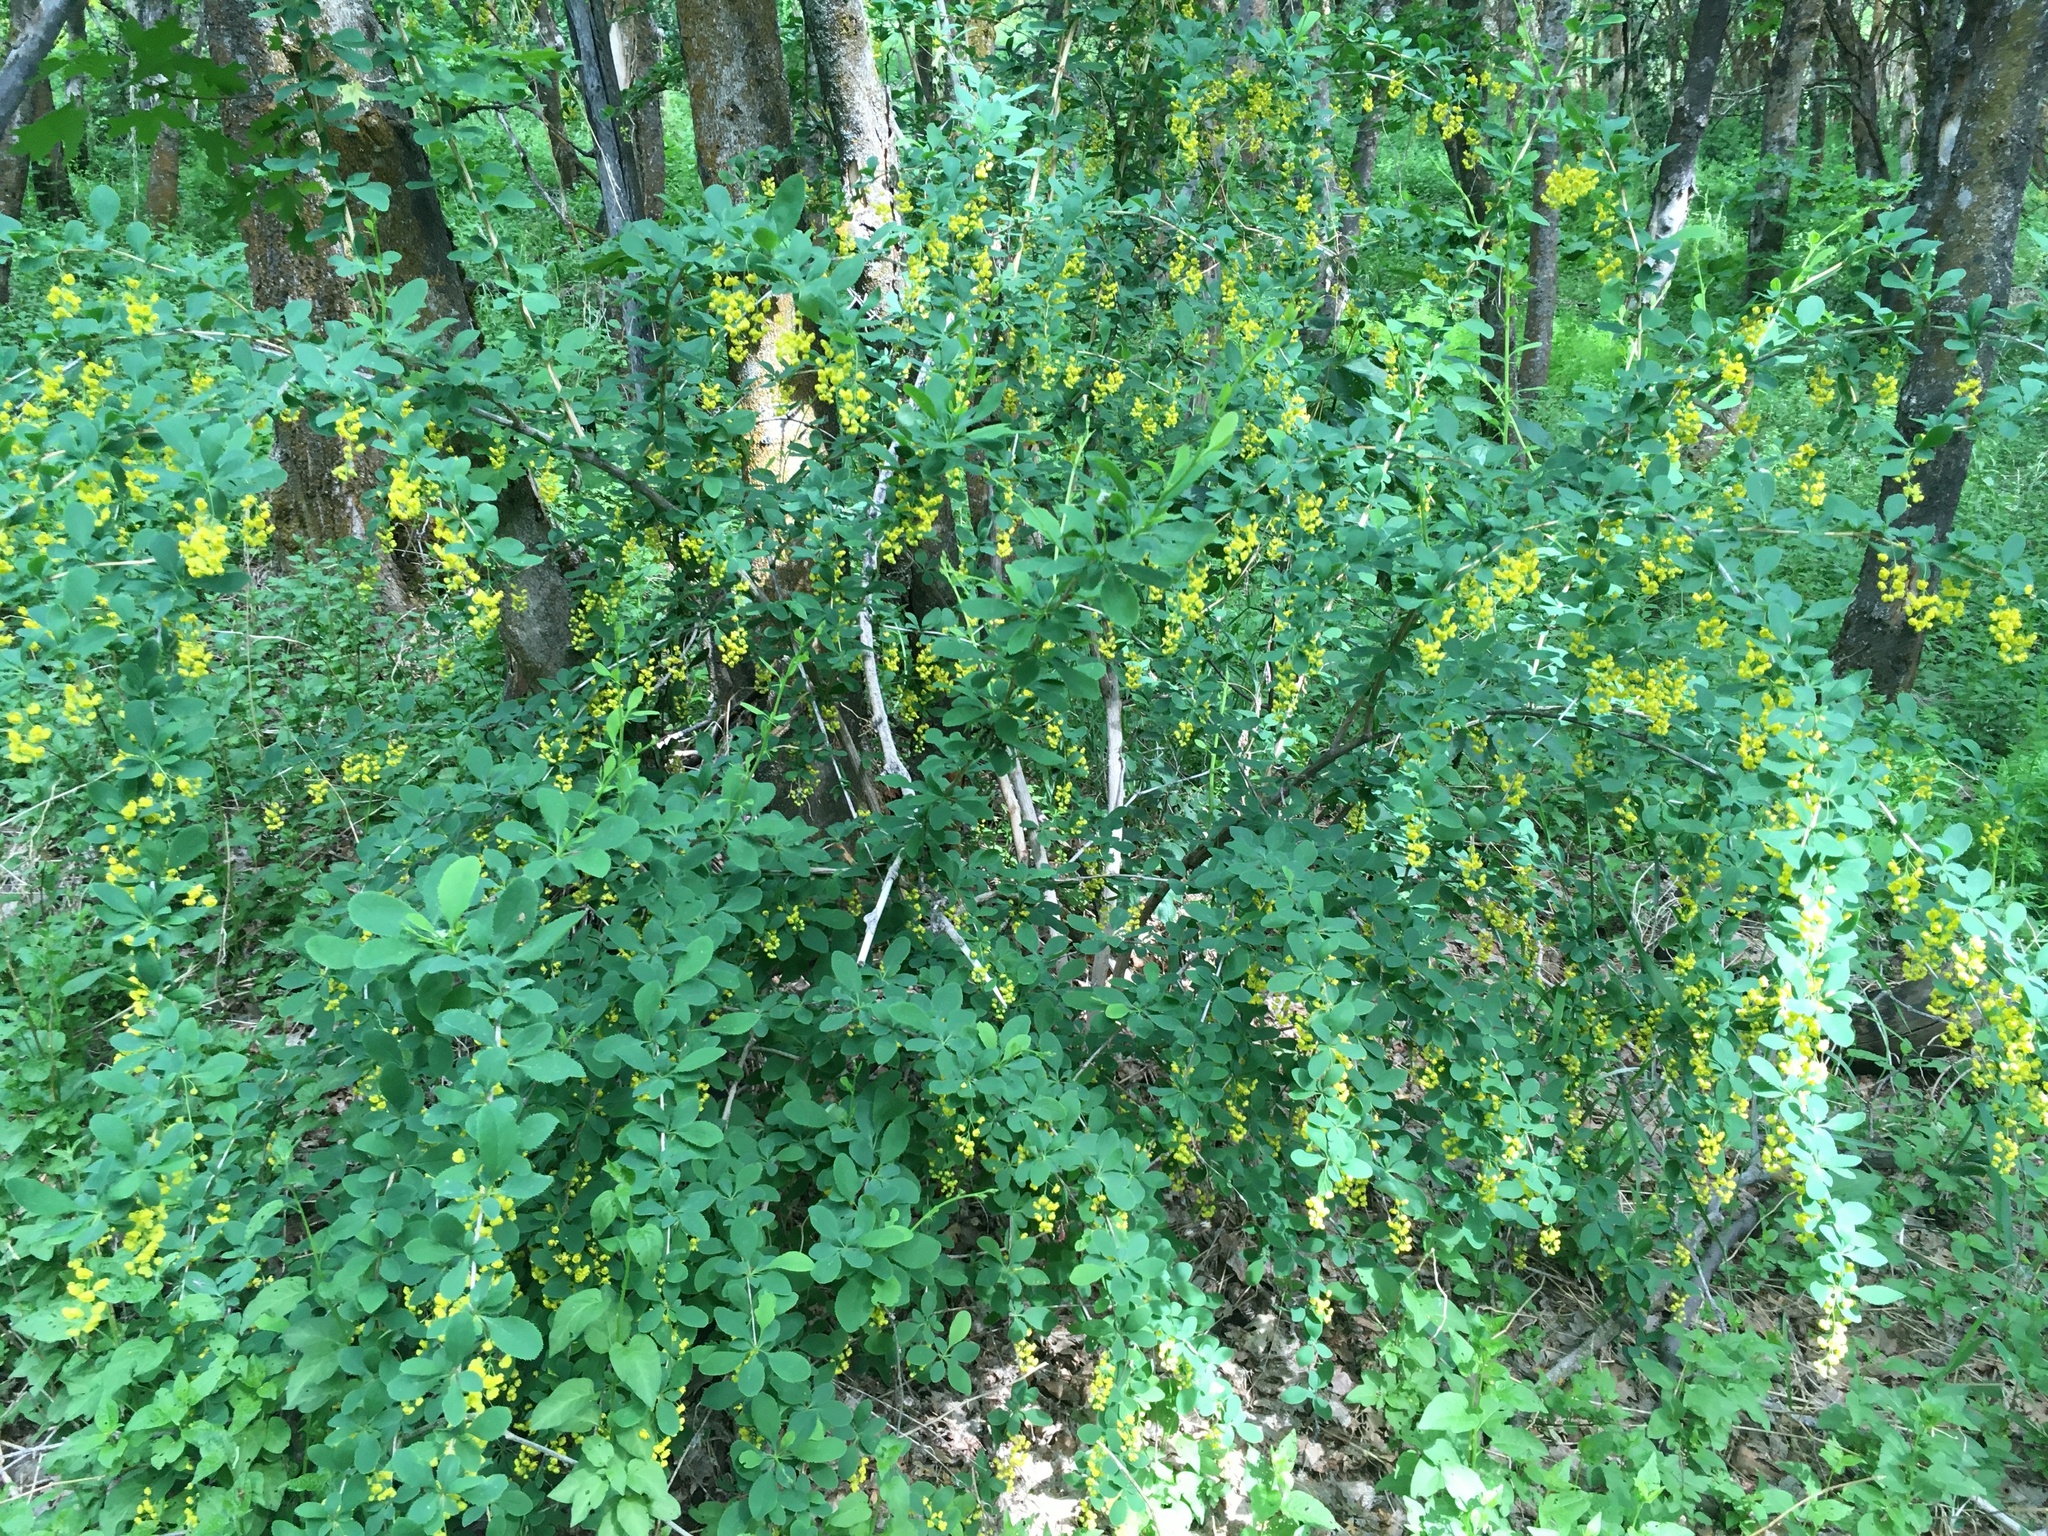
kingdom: Plantae
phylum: Tracheophyta
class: Magnoliopsida
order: Ranunculales
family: Berberidaceae
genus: Berberis
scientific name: Berberis vulgaris
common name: Barberry
